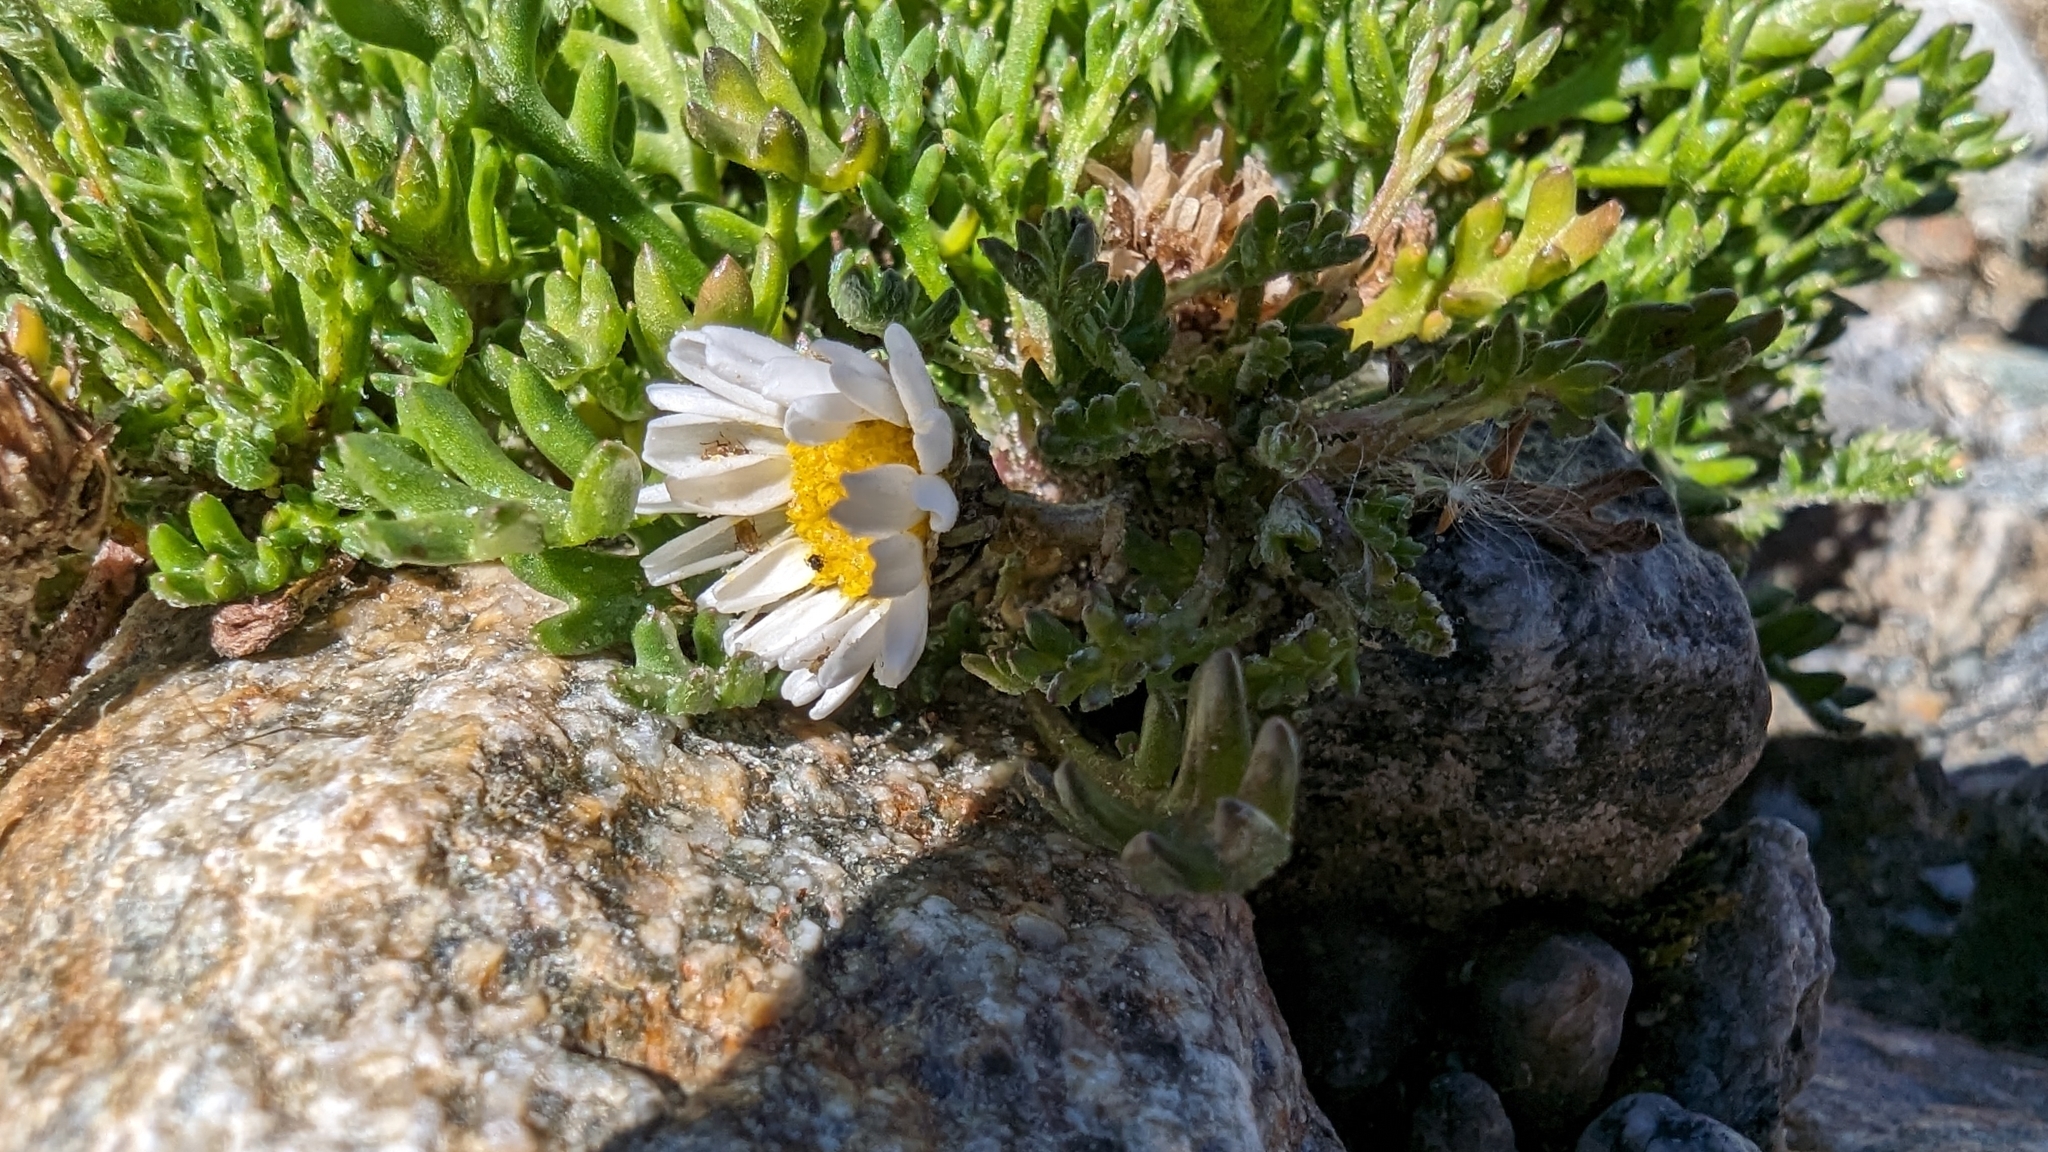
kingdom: Plantae
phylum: Tracheophyta
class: Magnoliopsida
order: Asterales
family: Asteraceae
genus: Leucanthemopsis
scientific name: Leucanthemopsis alpina
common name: Alpine moon daisy
